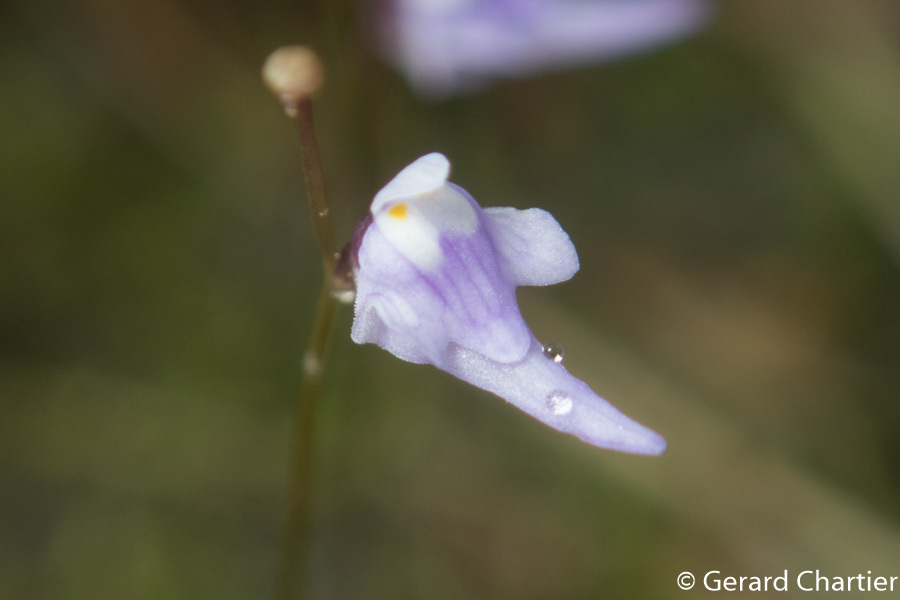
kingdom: Plantae
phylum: Tracheophyta
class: Magnoliopsida
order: Lamiales
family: Lentibulariaceae
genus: Utricularia
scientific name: Utricularia geoffrayi
